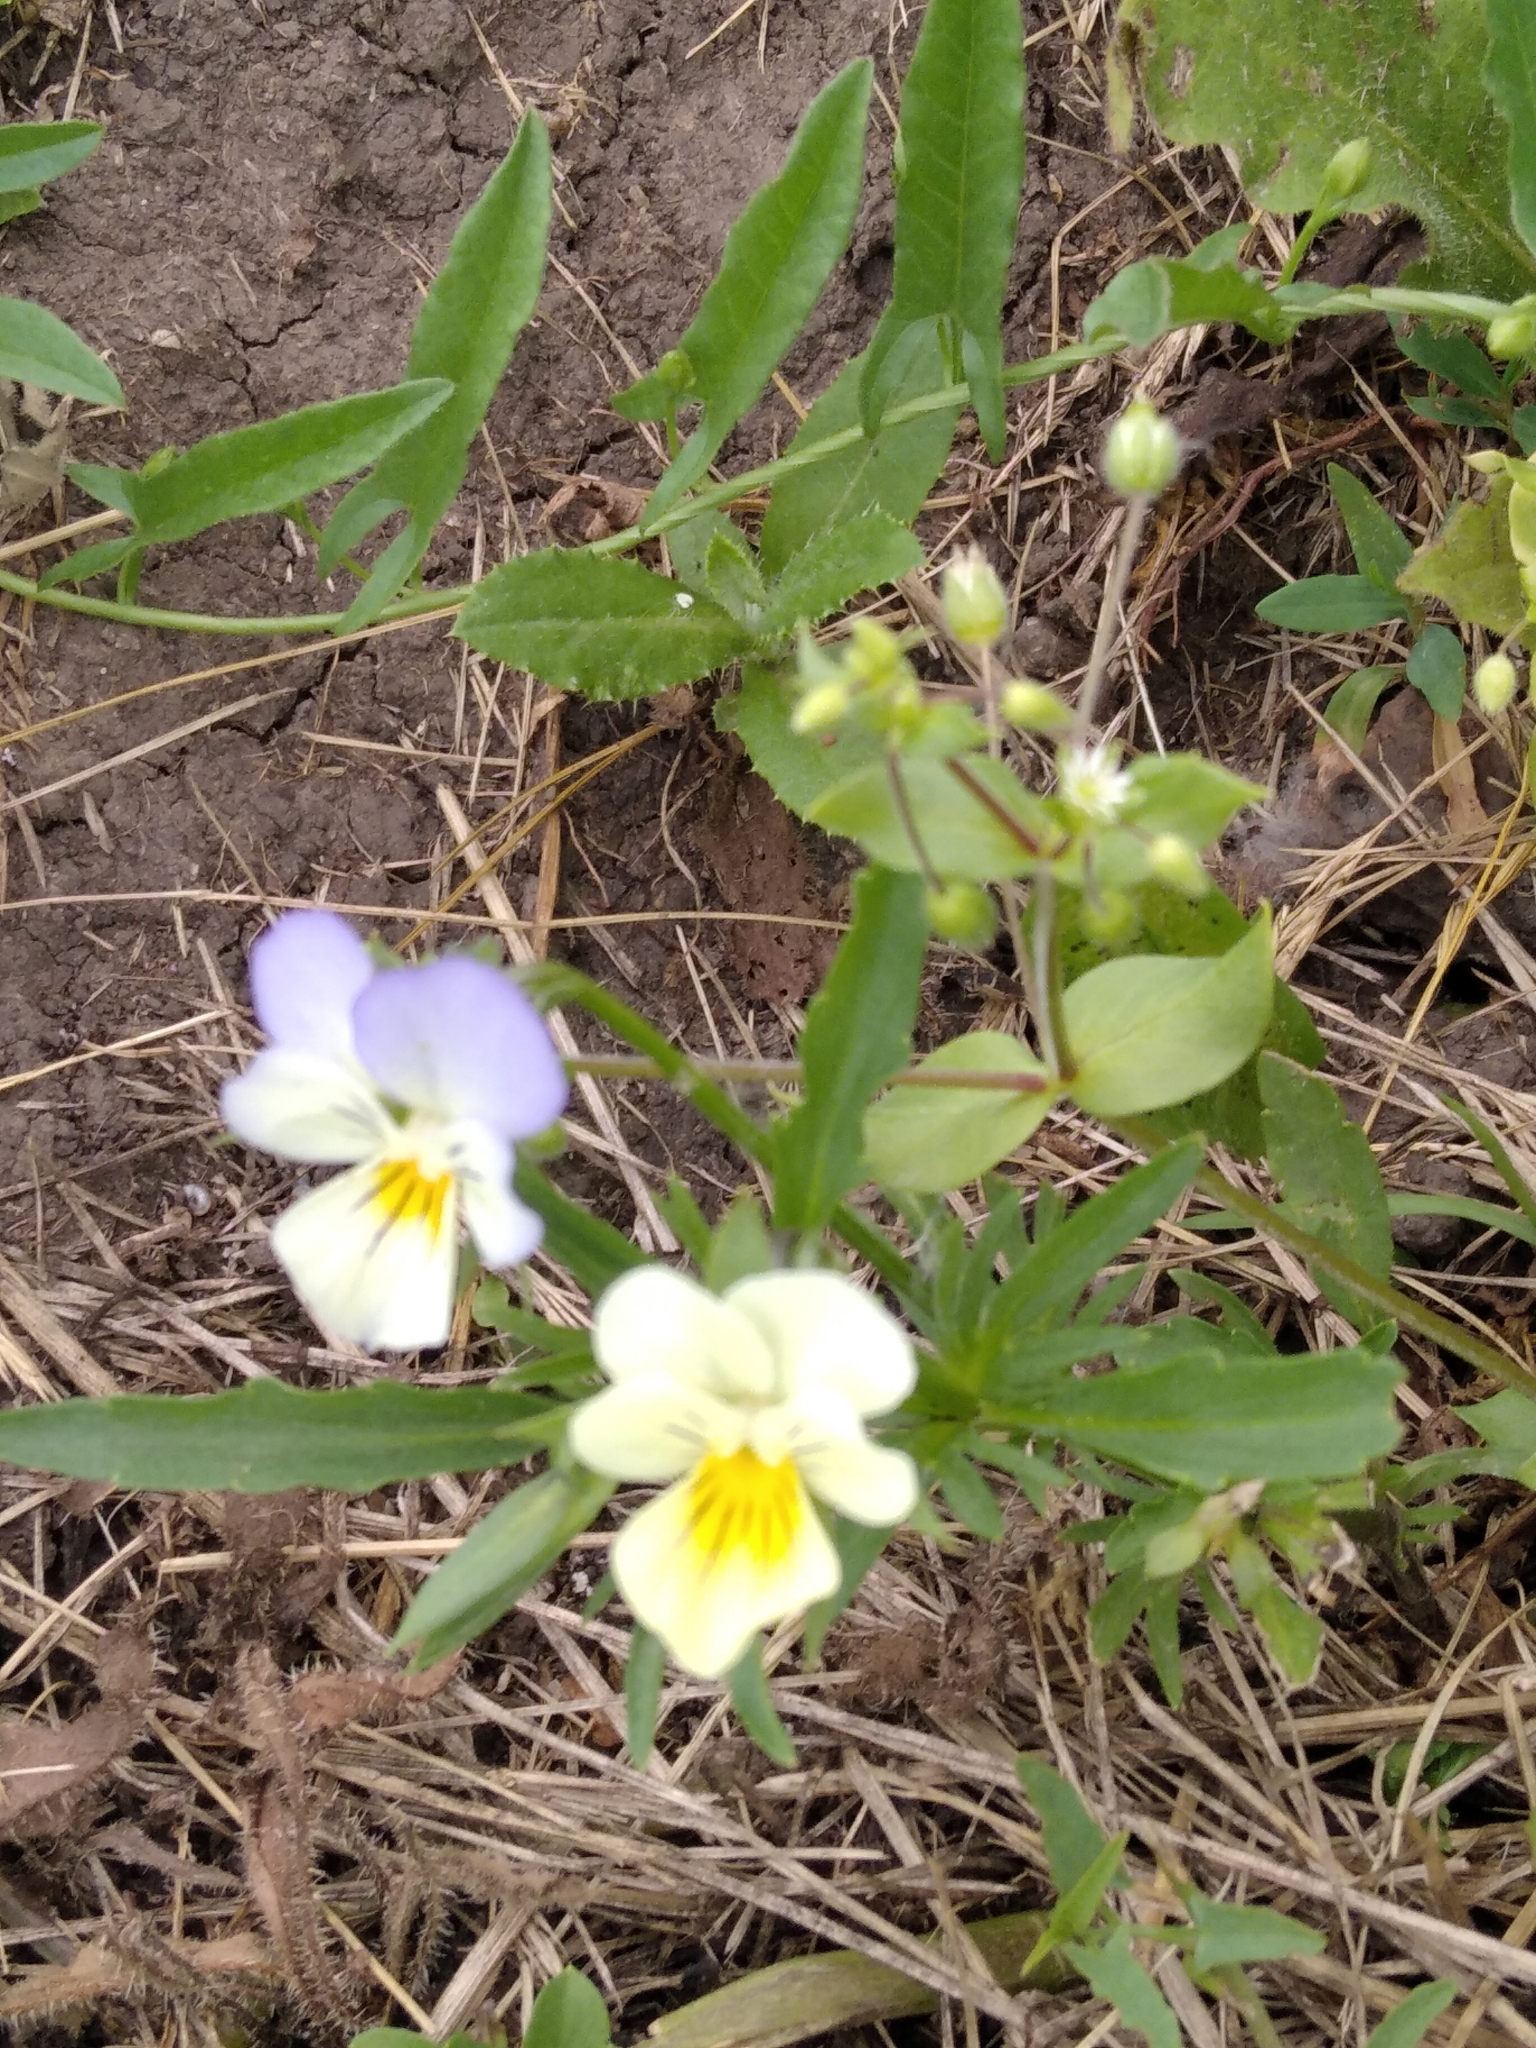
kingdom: Plantae
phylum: Tracheophyta
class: Magnoliopsida
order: Malpighiales
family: Violaceae
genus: Viola
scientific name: Viola tricolor
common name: Pansy
